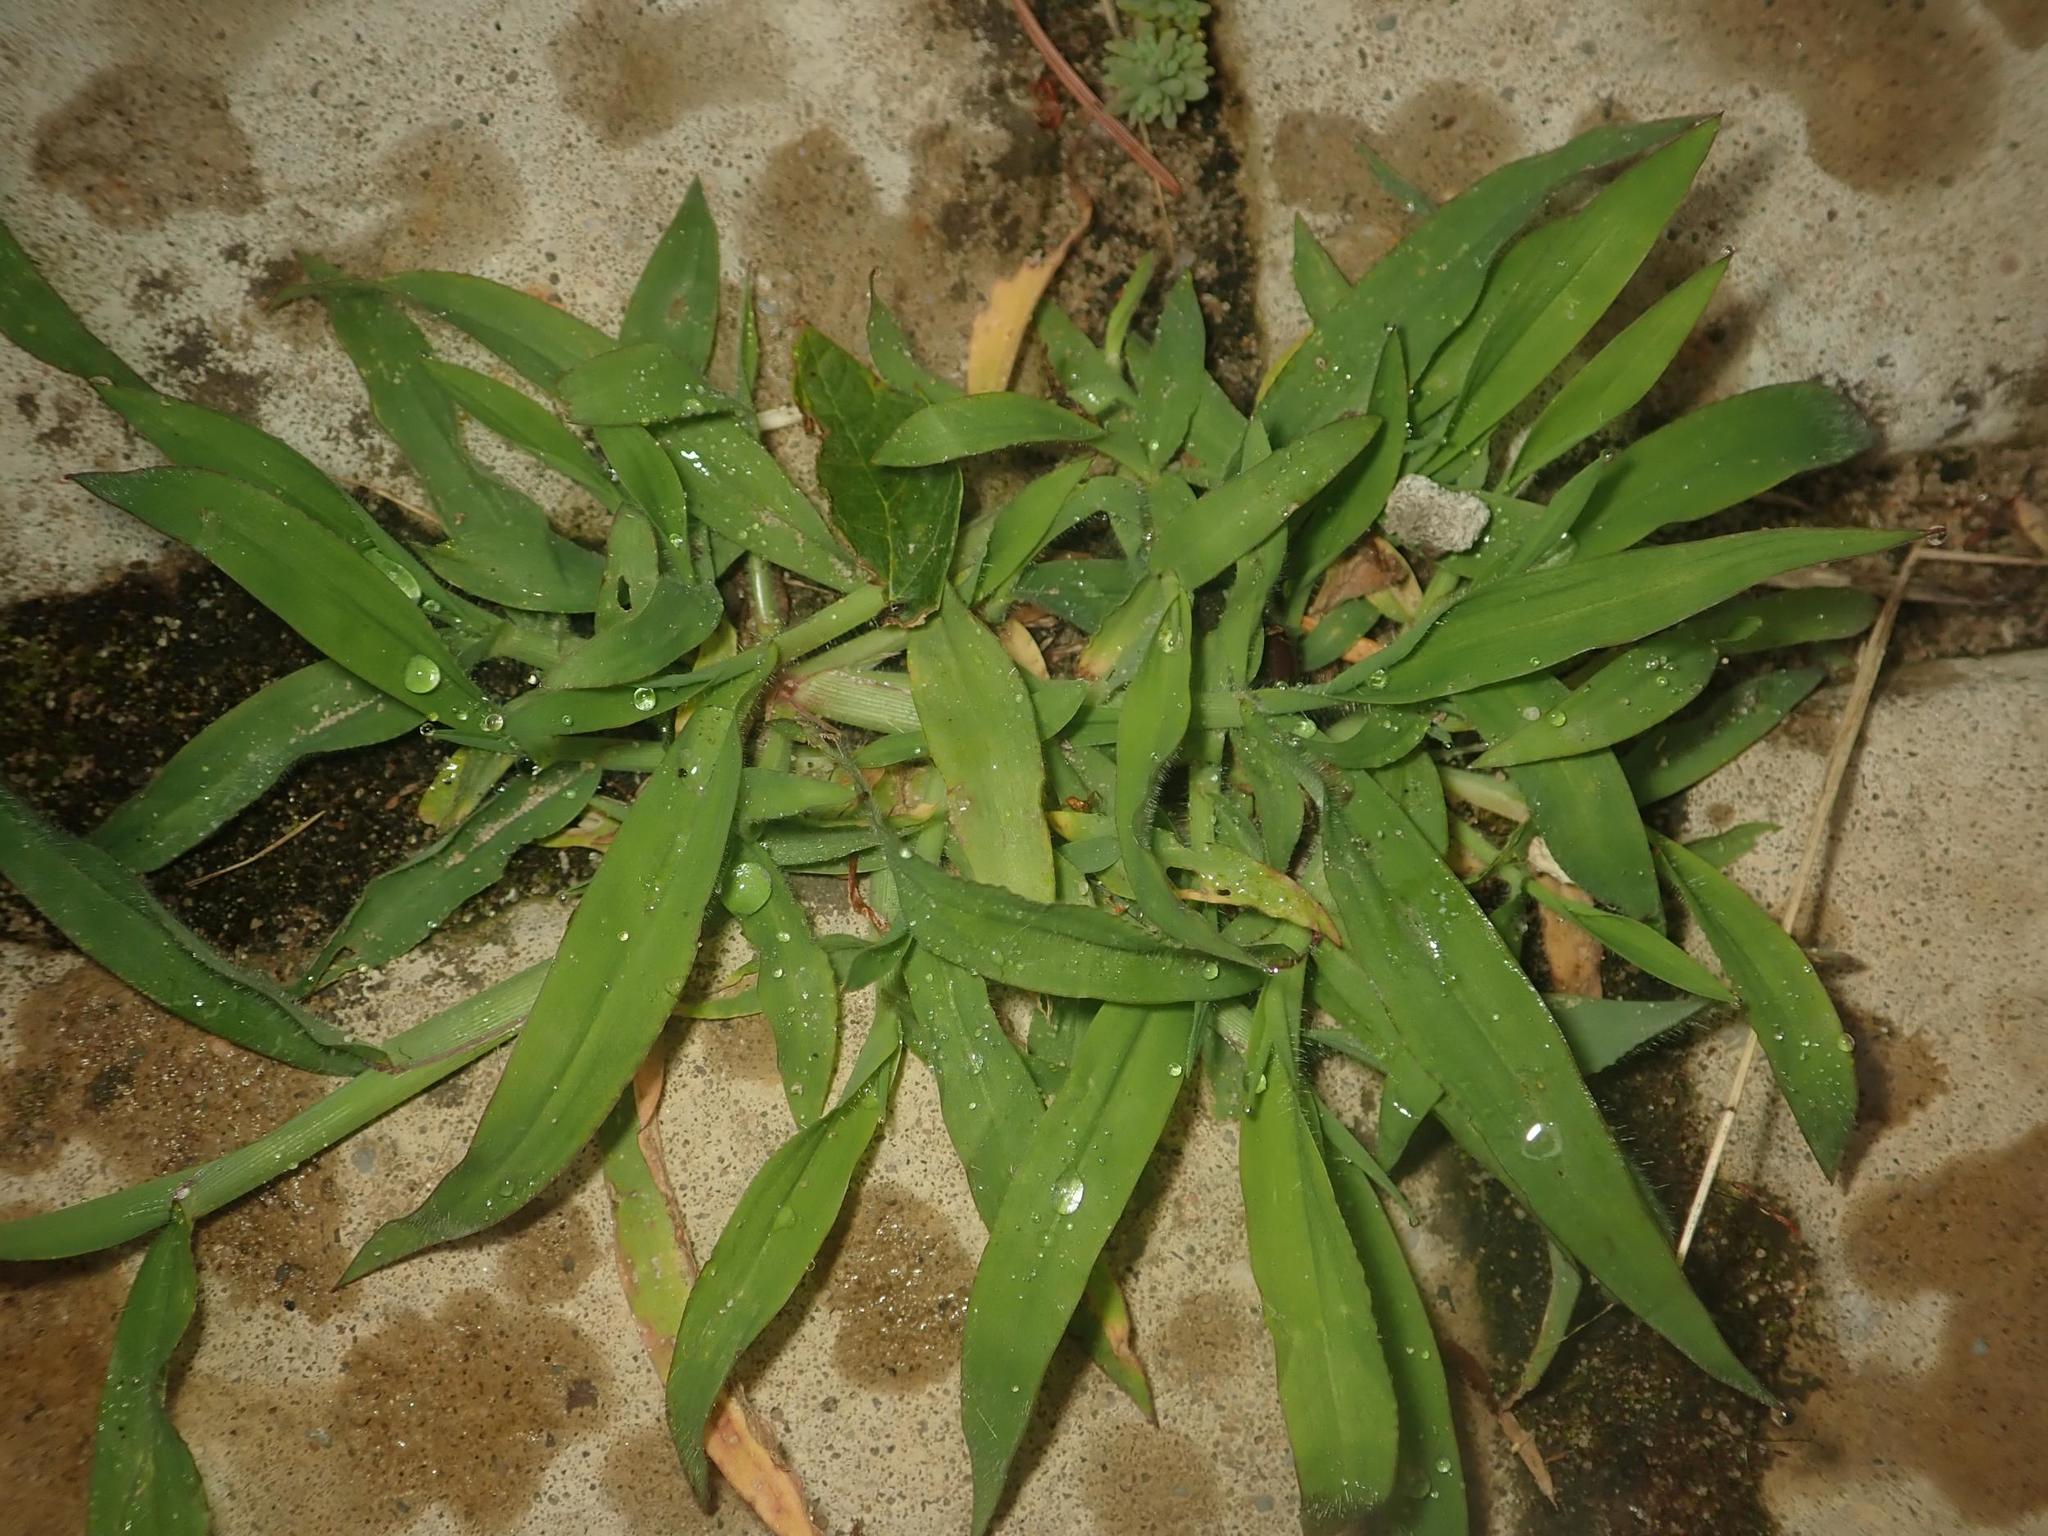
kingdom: Plantae
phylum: Tracheophyta
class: Liliopsida
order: Poales
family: Poaceae
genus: Digitaria
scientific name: Digitaria sanguinalis
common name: Hairy crabgrass
